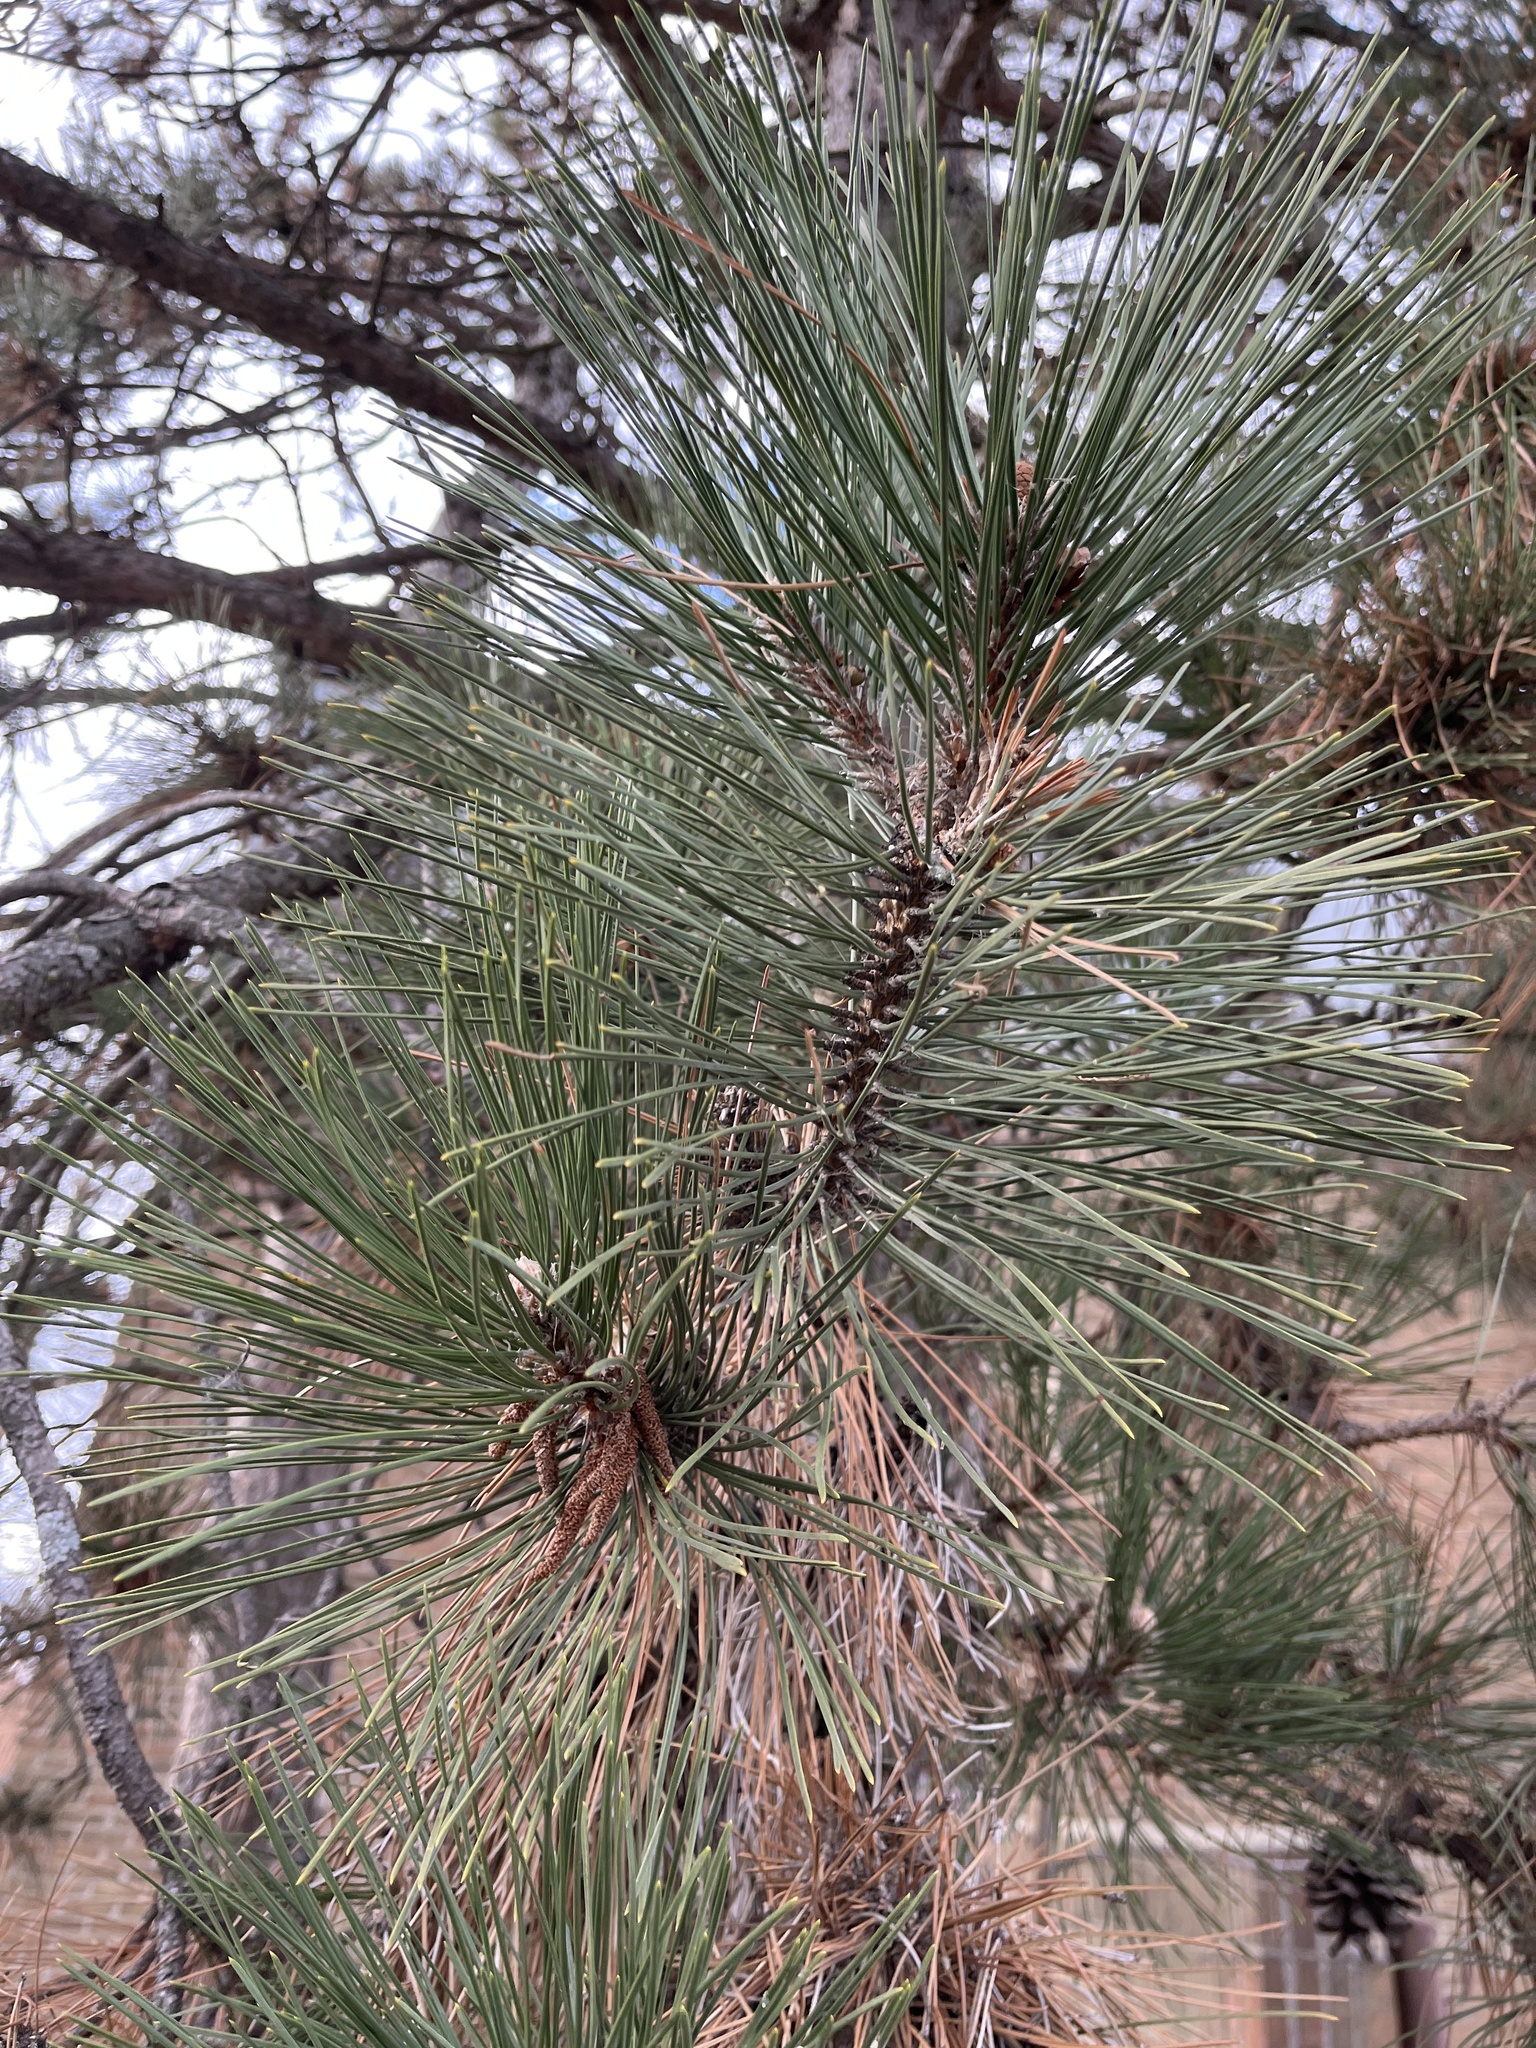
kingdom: Plantae
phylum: Tracheophyta
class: Pinopsida
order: Pinales
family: Pinaceae
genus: Pinus
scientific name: Pinus resinosa
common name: Norway pine
